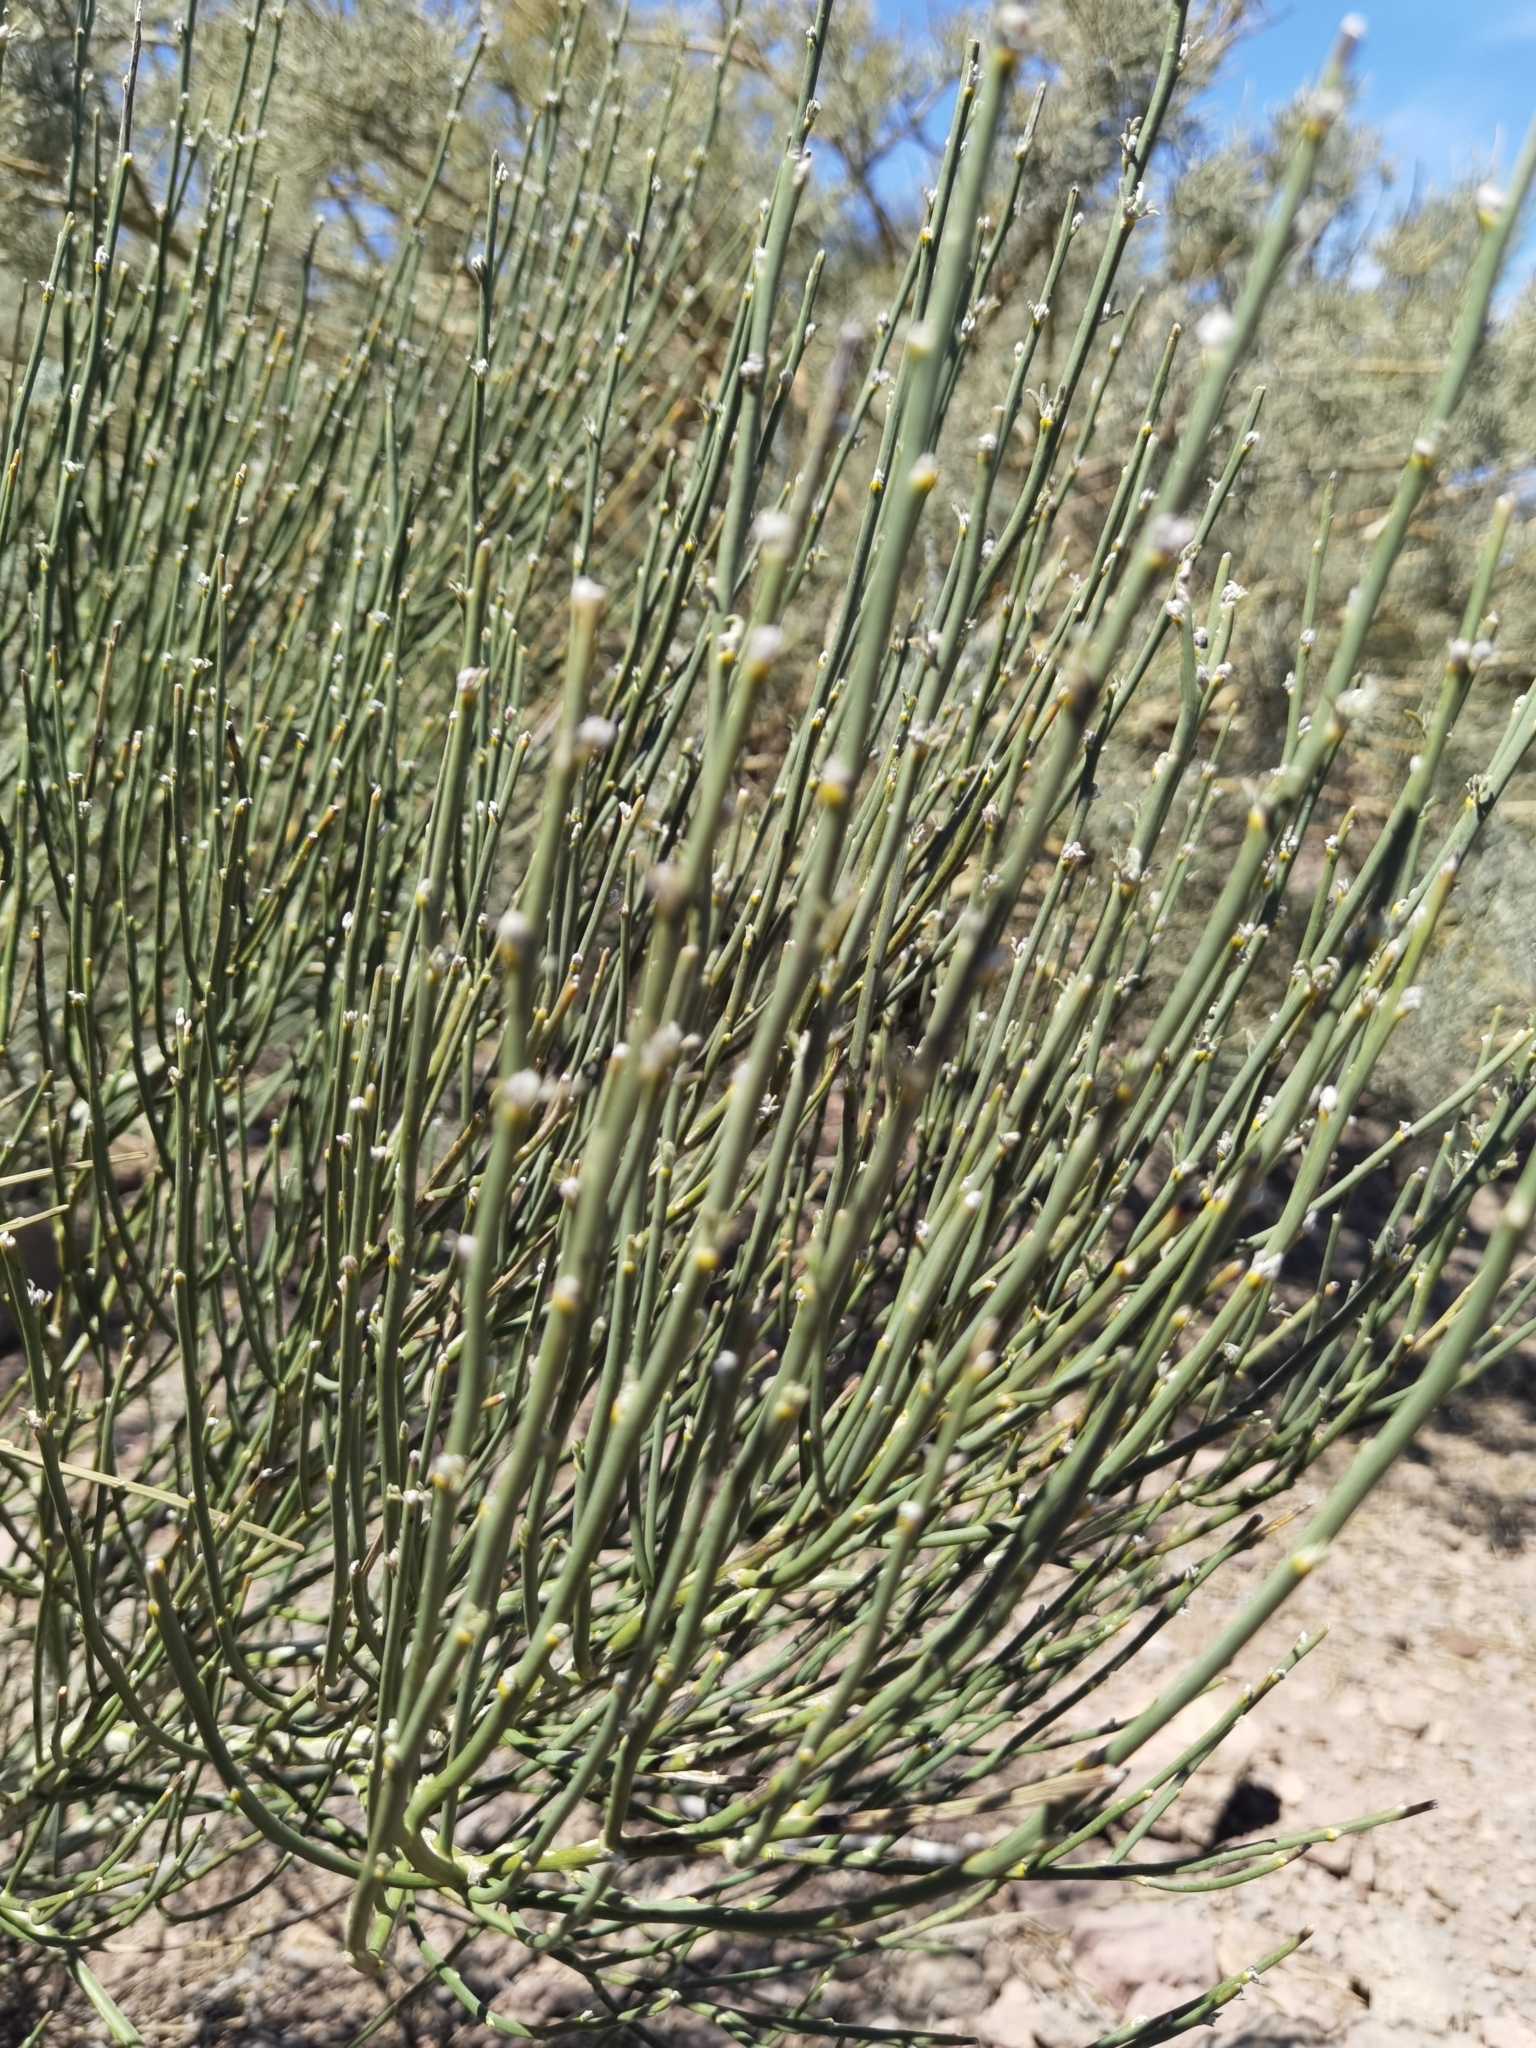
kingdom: Plantae
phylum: Tracheophyta
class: Magnoliopsida
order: Fabales
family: Fabaceae
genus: Cytisus
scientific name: Cytisus supranubius
